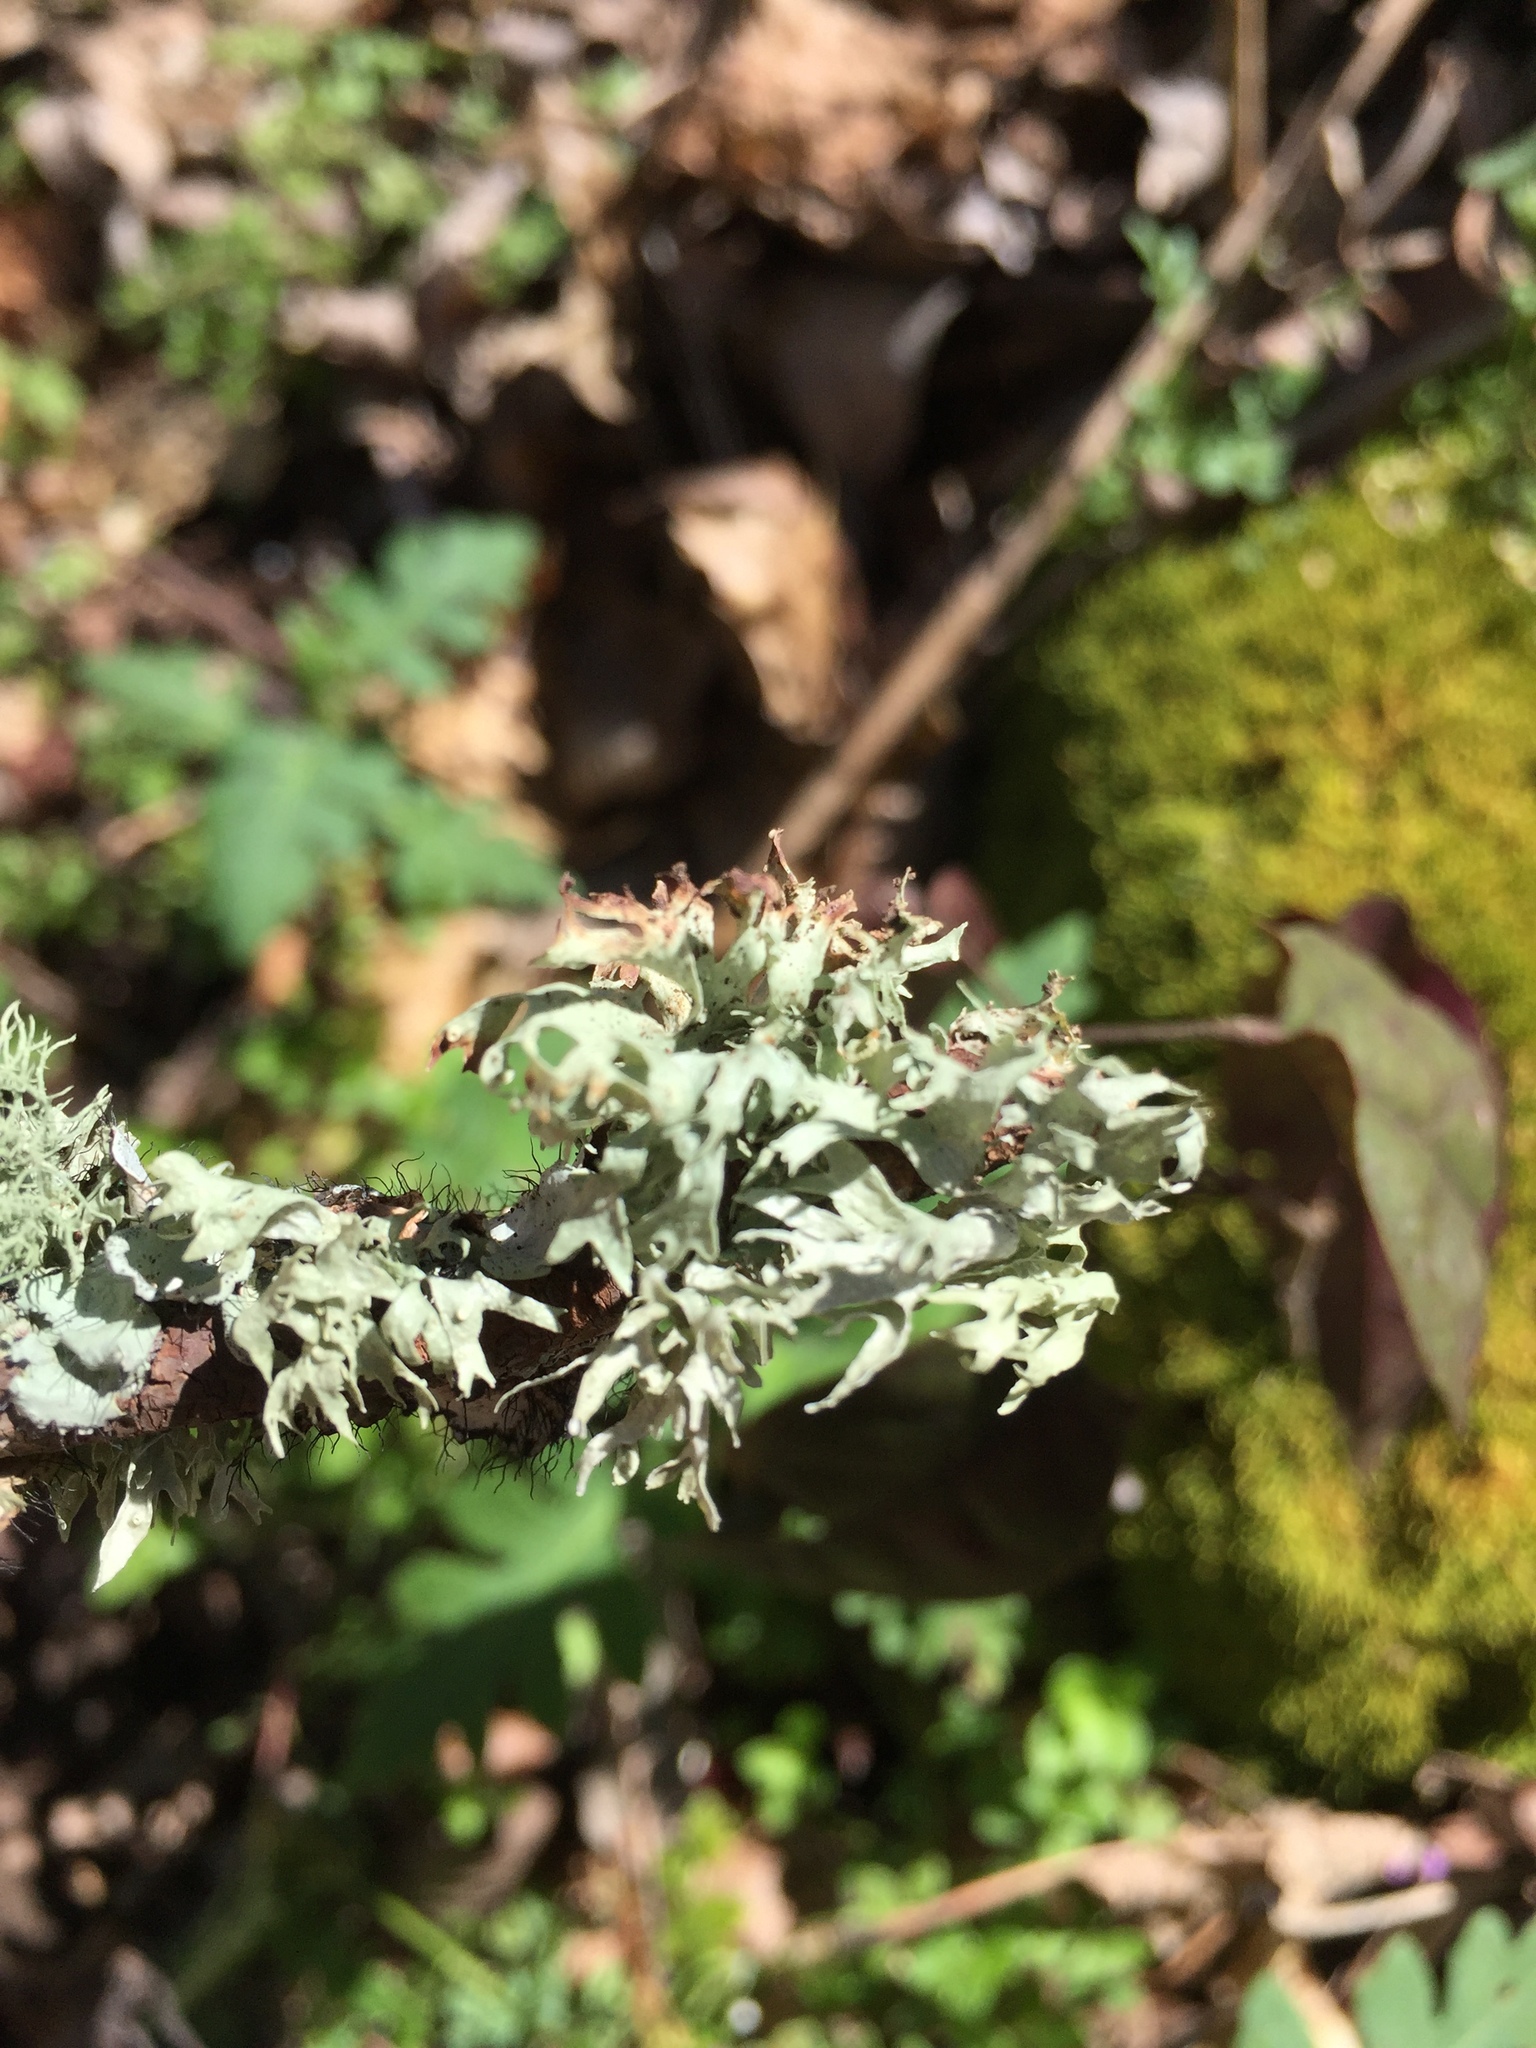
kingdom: Fungi
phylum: Ascomycota
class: Lecanoromycetes
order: Lecanorales
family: Ramalinaceae
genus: Ramalina
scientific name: Ramalina americana
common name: Sinewed bush lichen
